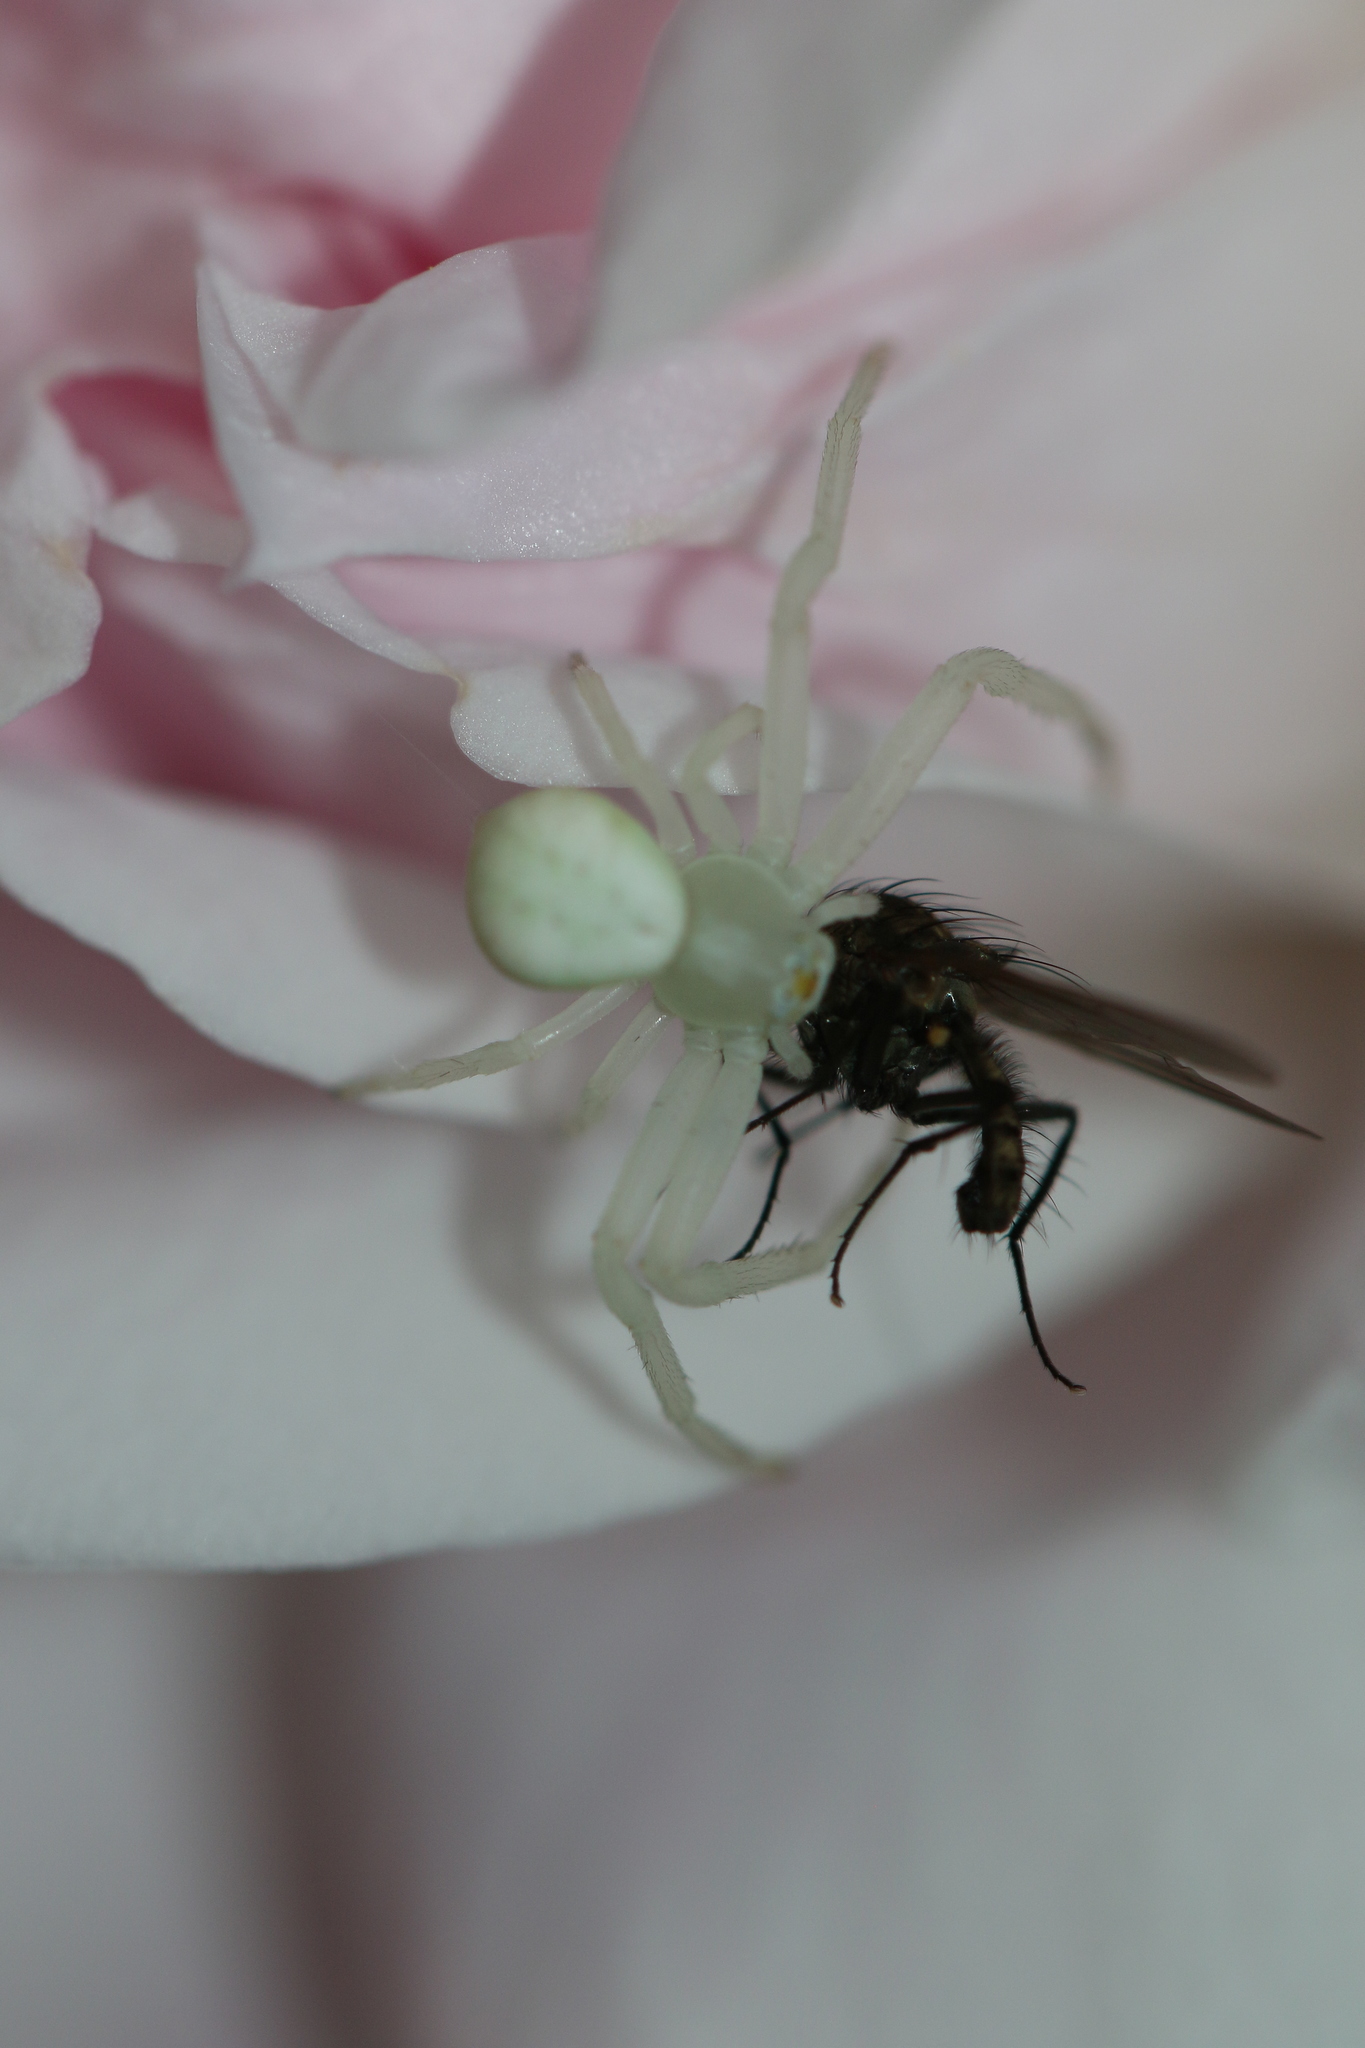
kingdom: Animalia
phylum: Arthropoda
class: Arachnida
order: Araneae
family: Thomisidae
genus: Misumena
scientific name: Misumena vatia
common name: Goldenrod crab spider
